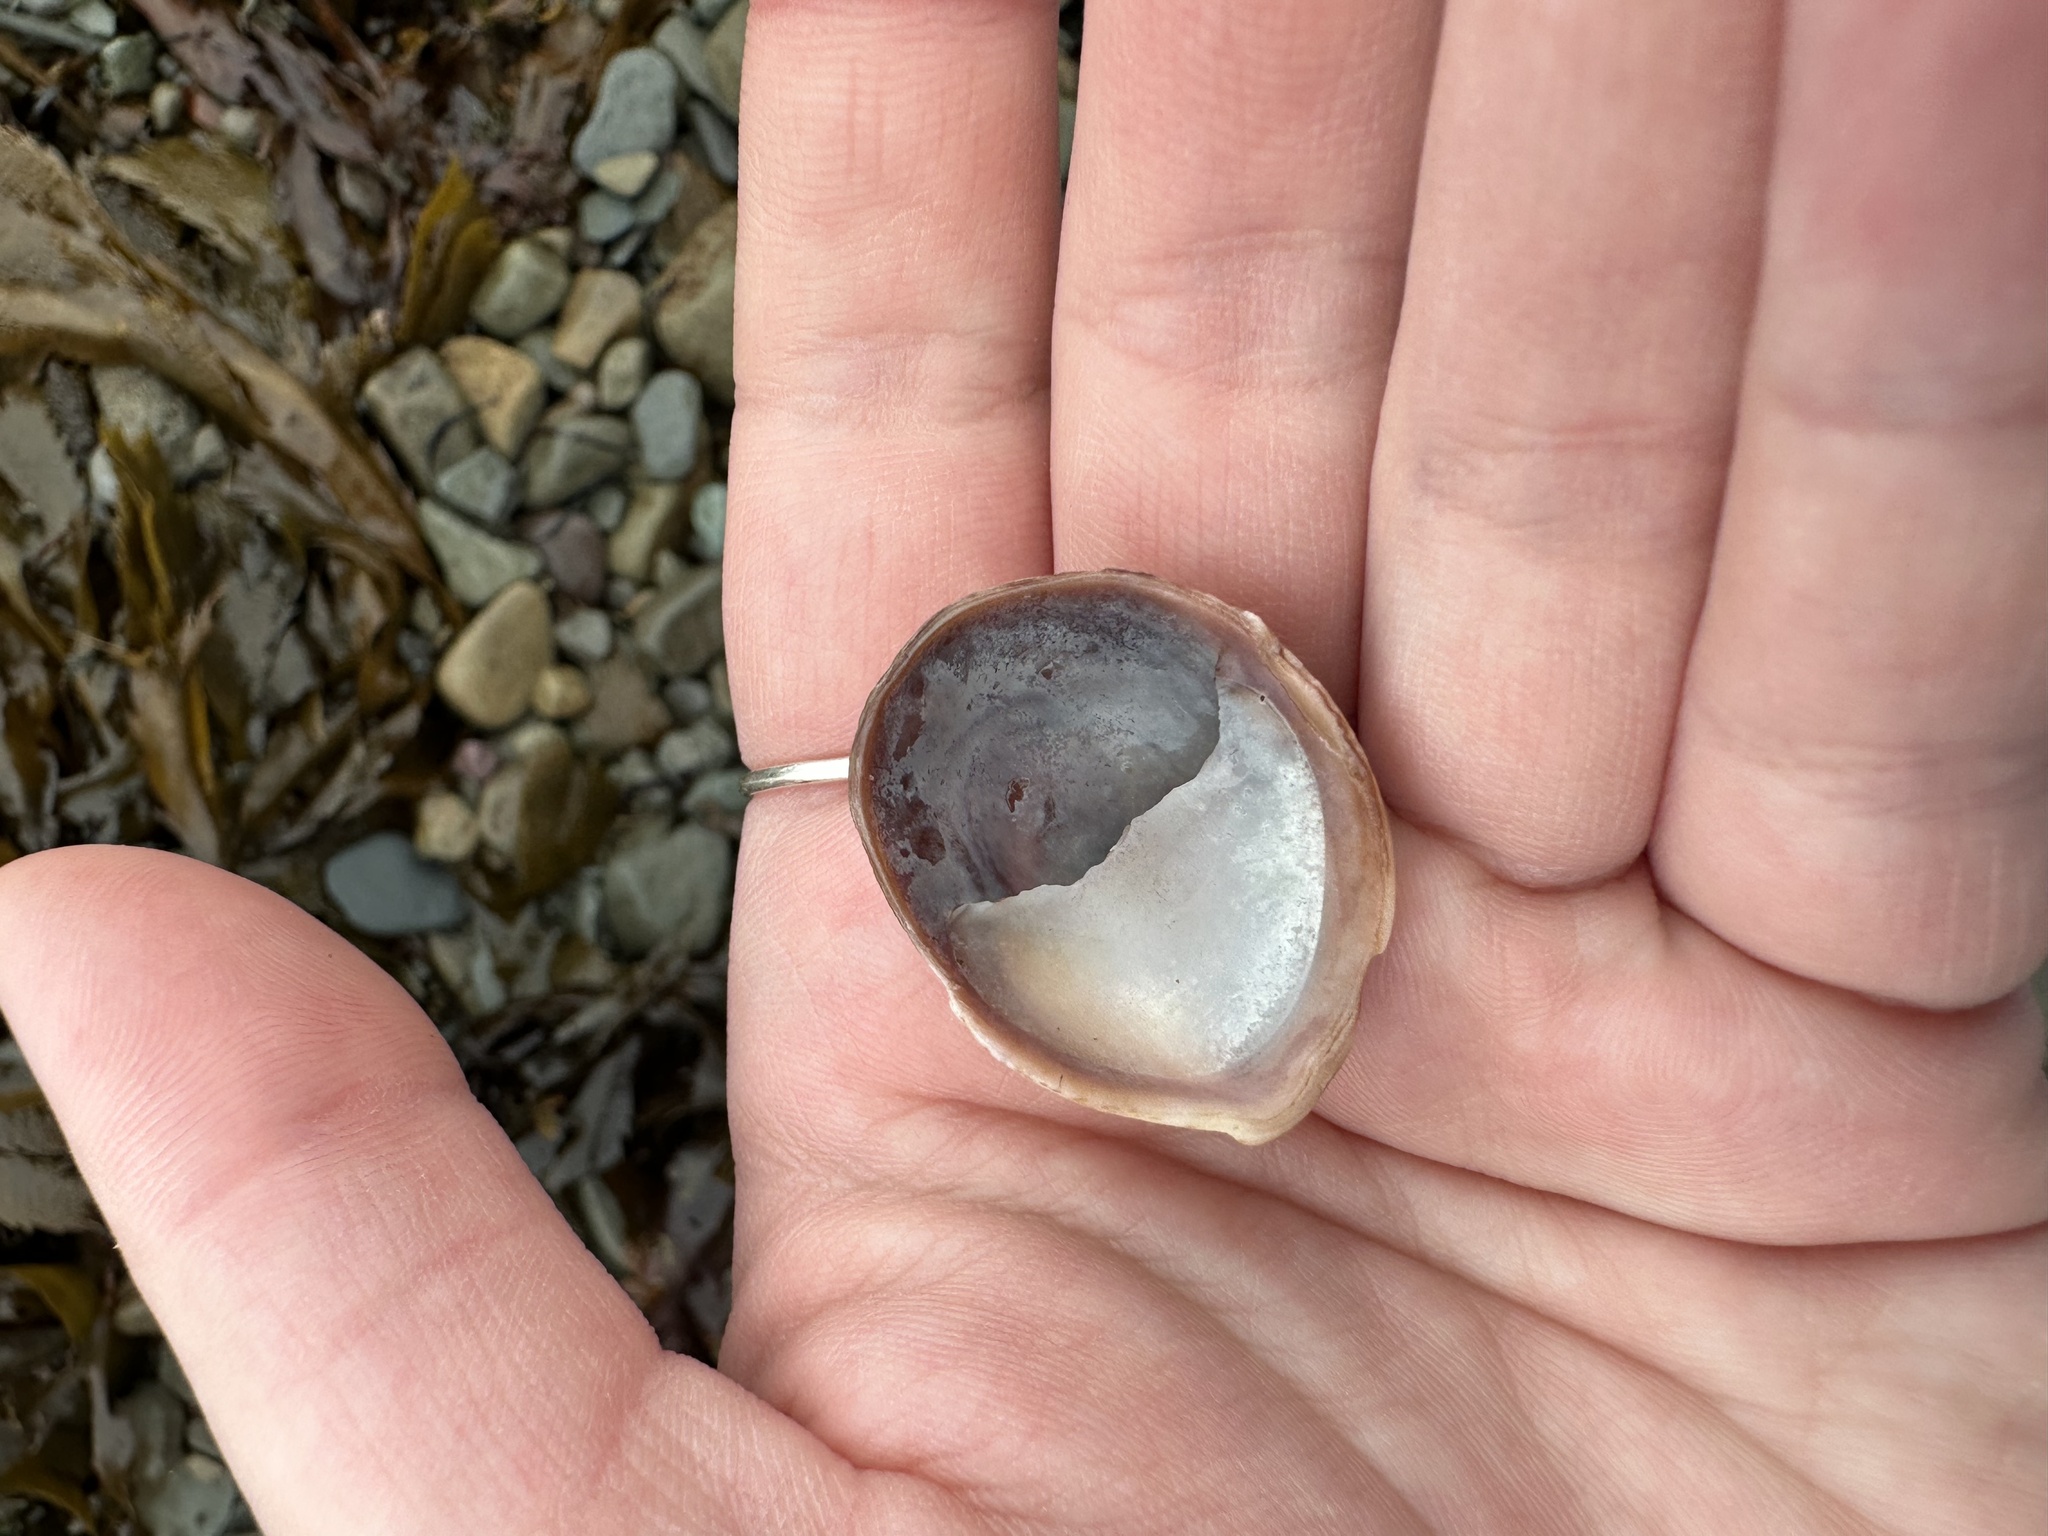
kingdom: Animalia
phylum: Mollusca
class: Gastropoda
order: Littorinimorpha
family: Calyptraeidae
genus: Crepidula
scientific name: Crepidula fornicata
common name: Slipper limpet
